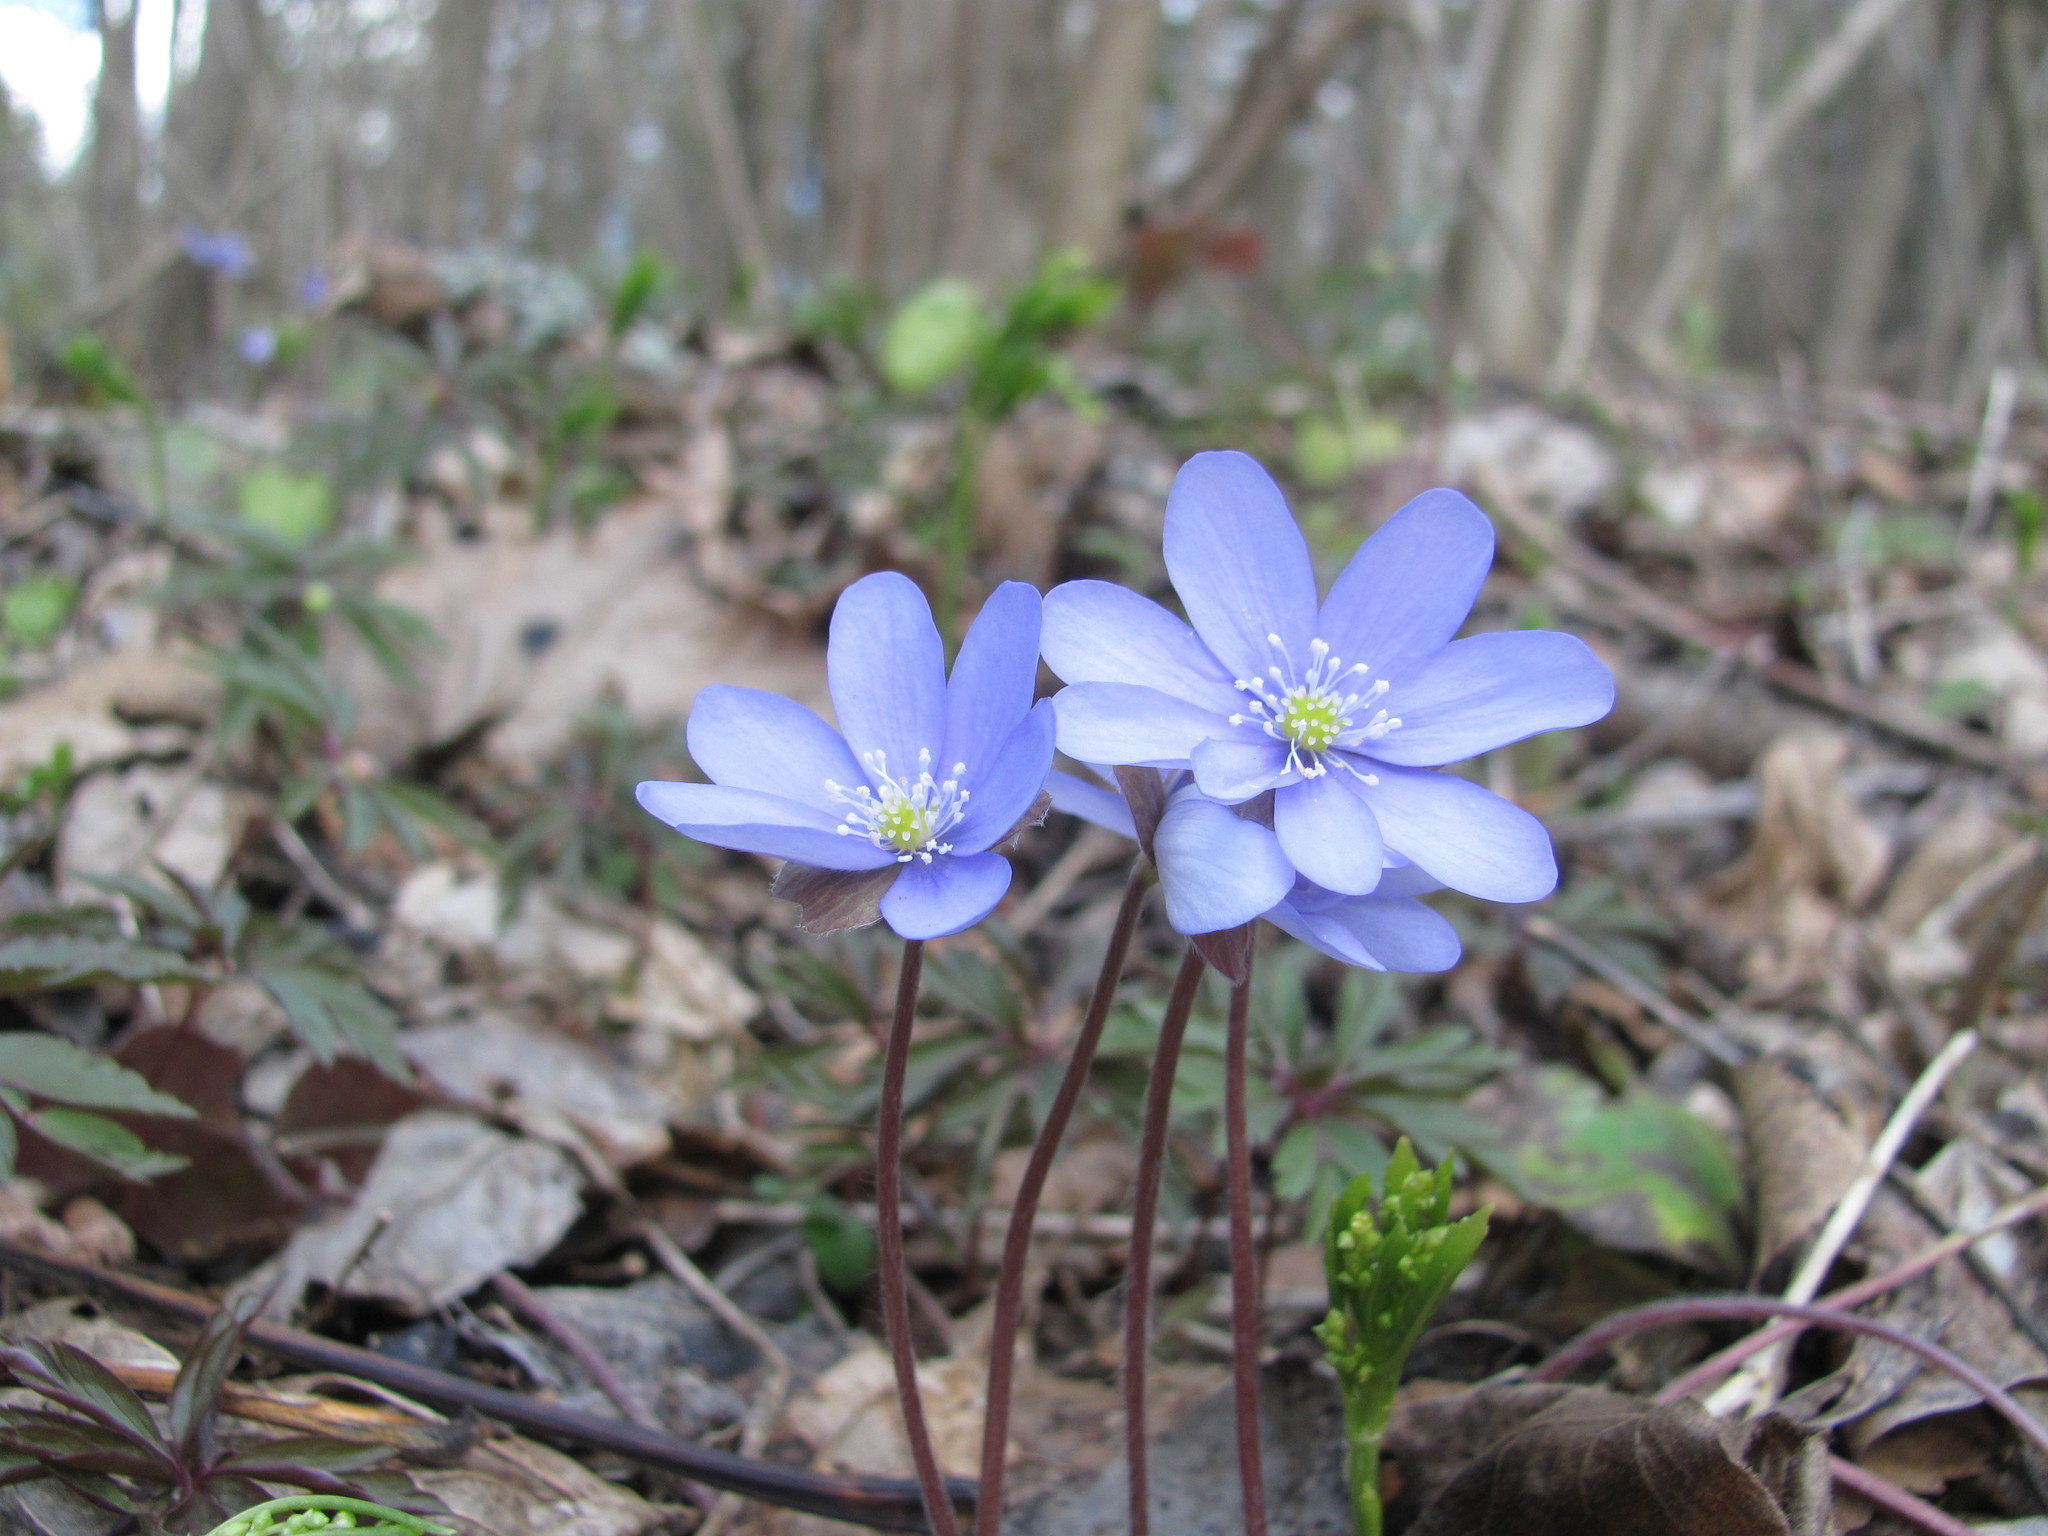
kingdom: Plantae
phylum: Tracheophyta
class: Magnoliopsida
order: Ranunculales
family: Ranunculaceae
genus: Hepatica
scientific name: Hepatica nobilis
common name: Liverleaf
